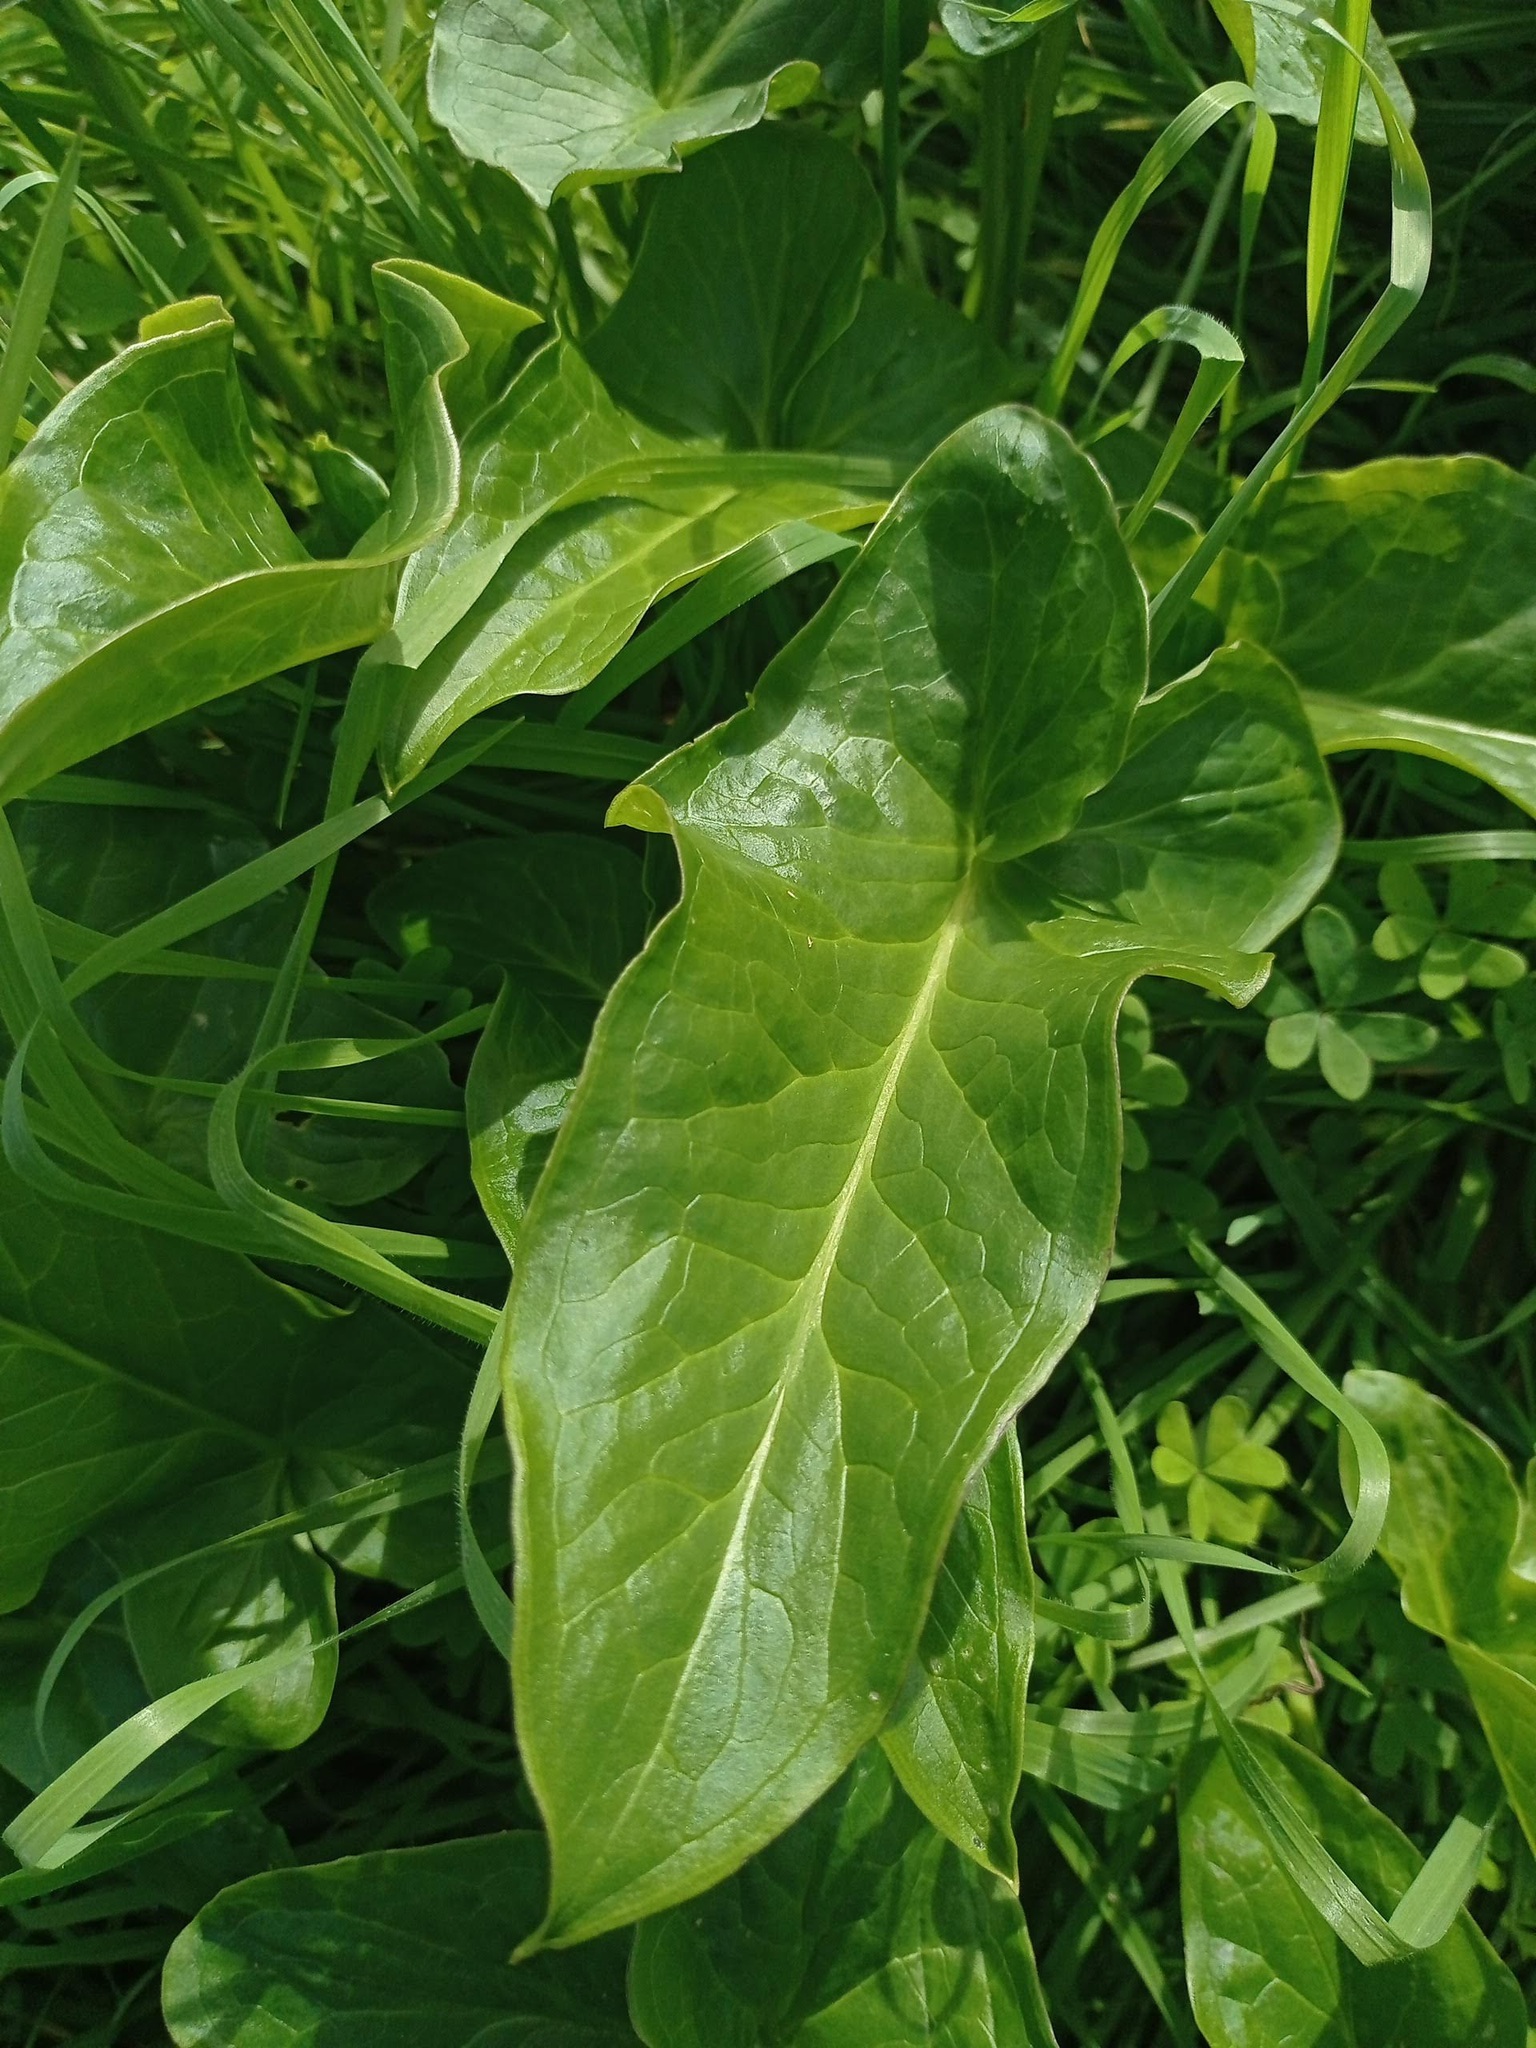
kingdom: Plantae
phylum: Tracheophyta
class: Liliopsida
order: Alismatales
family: Araceae
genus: Arum
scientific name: Arum italicum
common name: Italian lords-and-ladies
